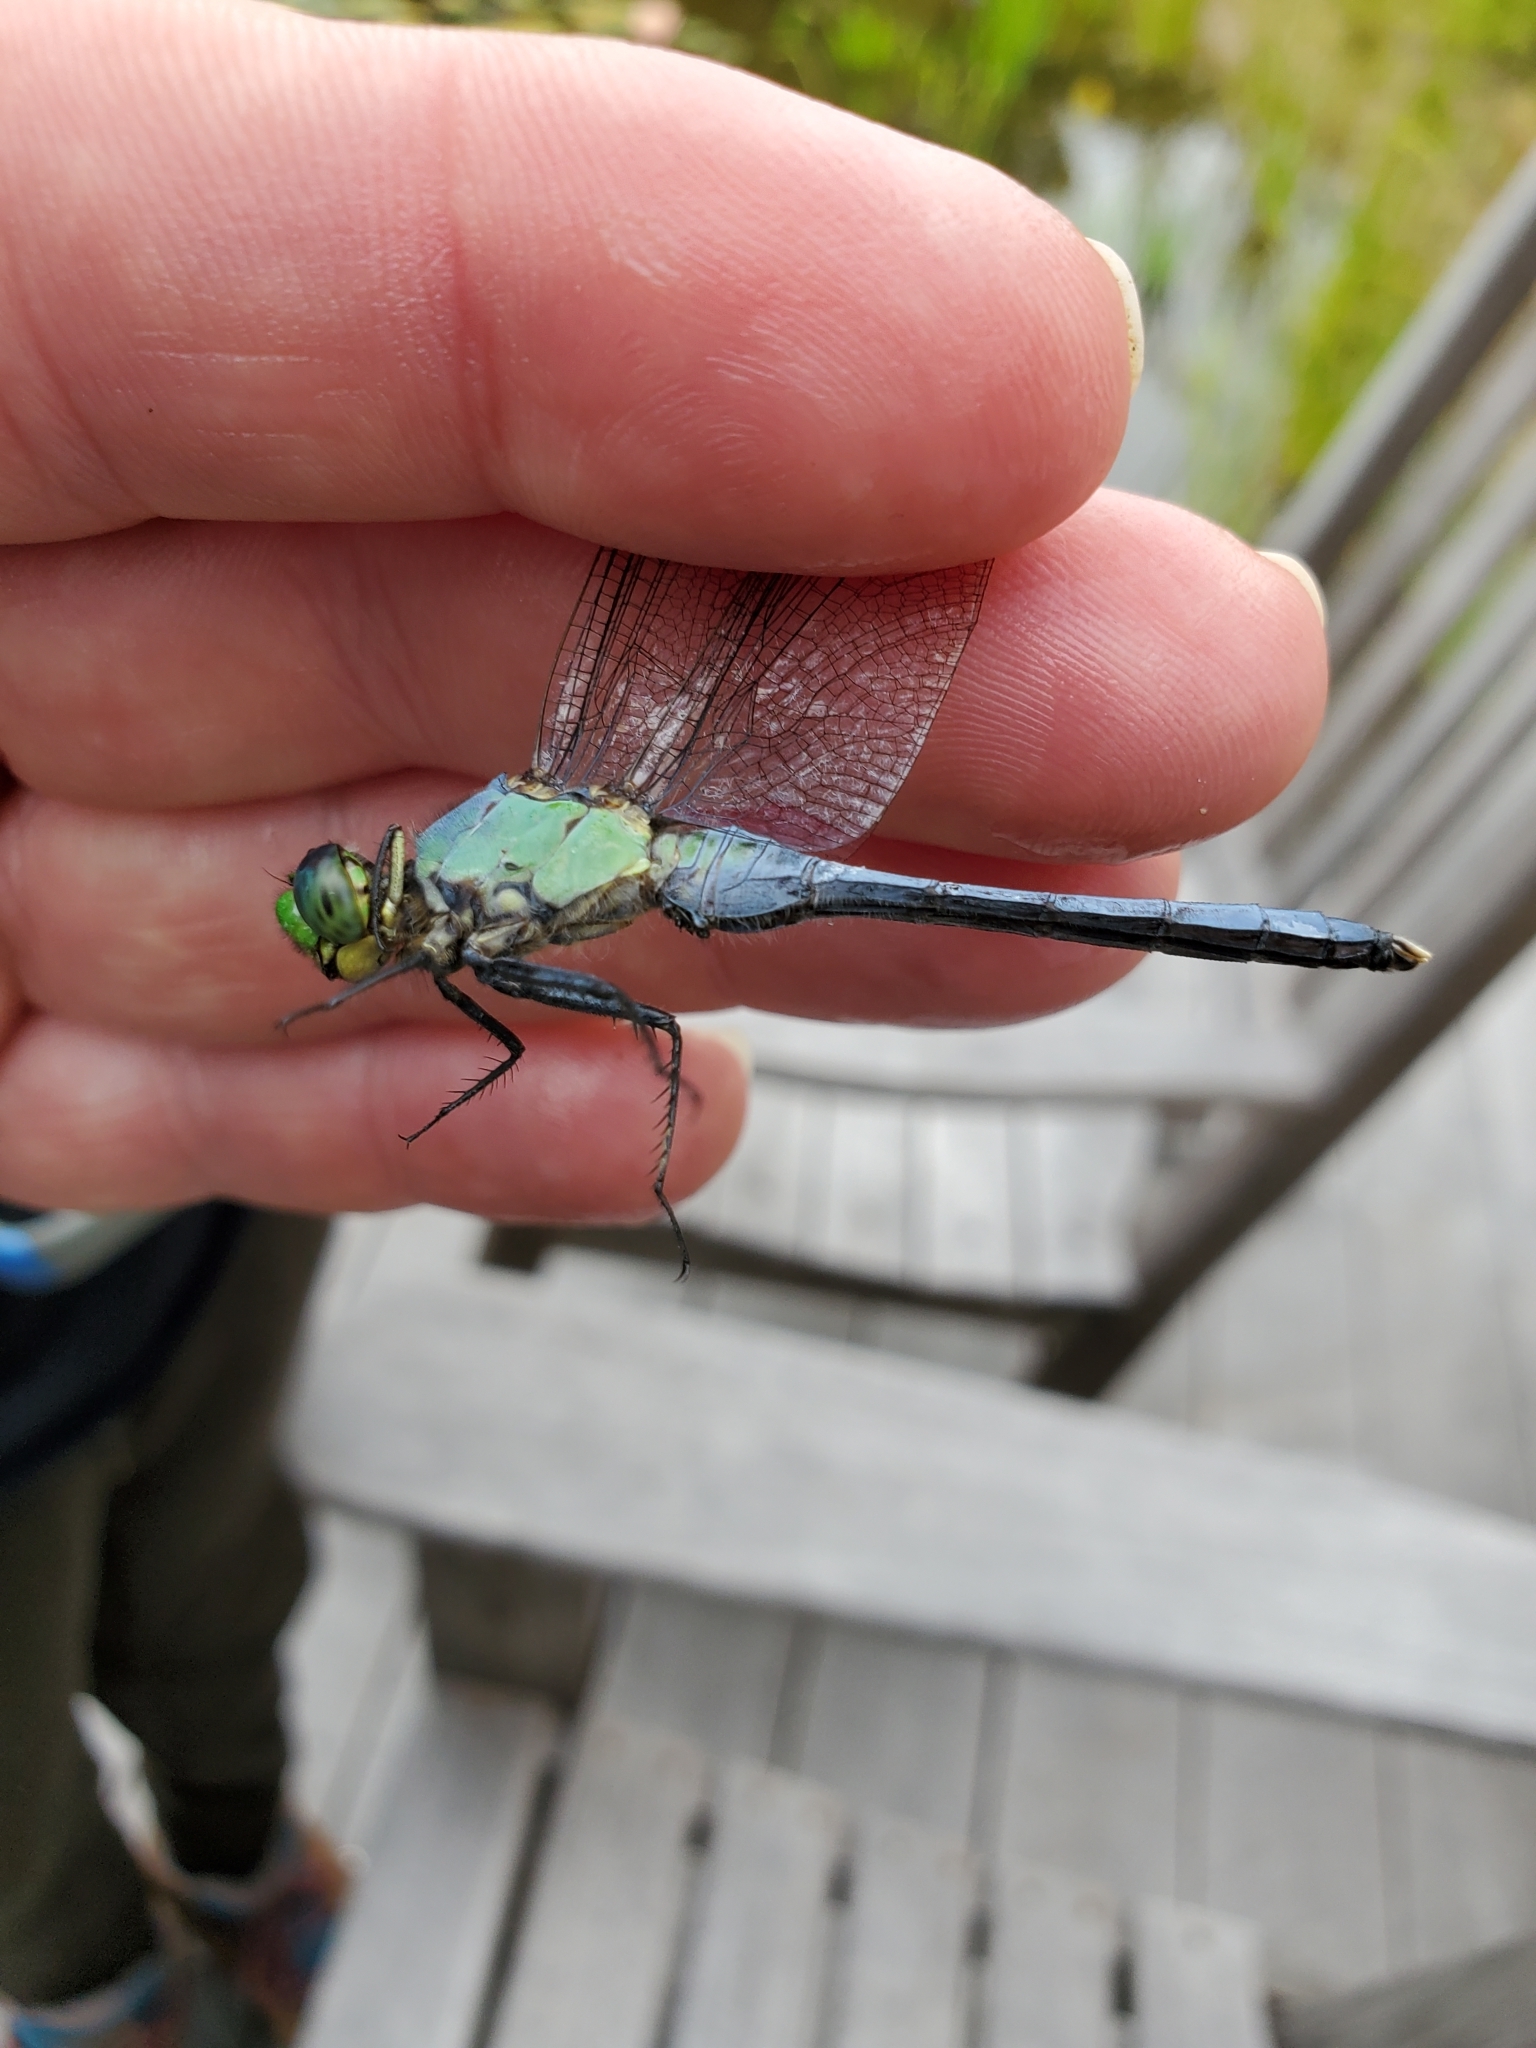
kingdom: Animalia
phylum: Arthropoda
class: Insecta
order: Odonata
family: Libellulidae
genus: Erythemis
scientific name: Erythemis simplicicollis
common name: Eastern pondhawk
